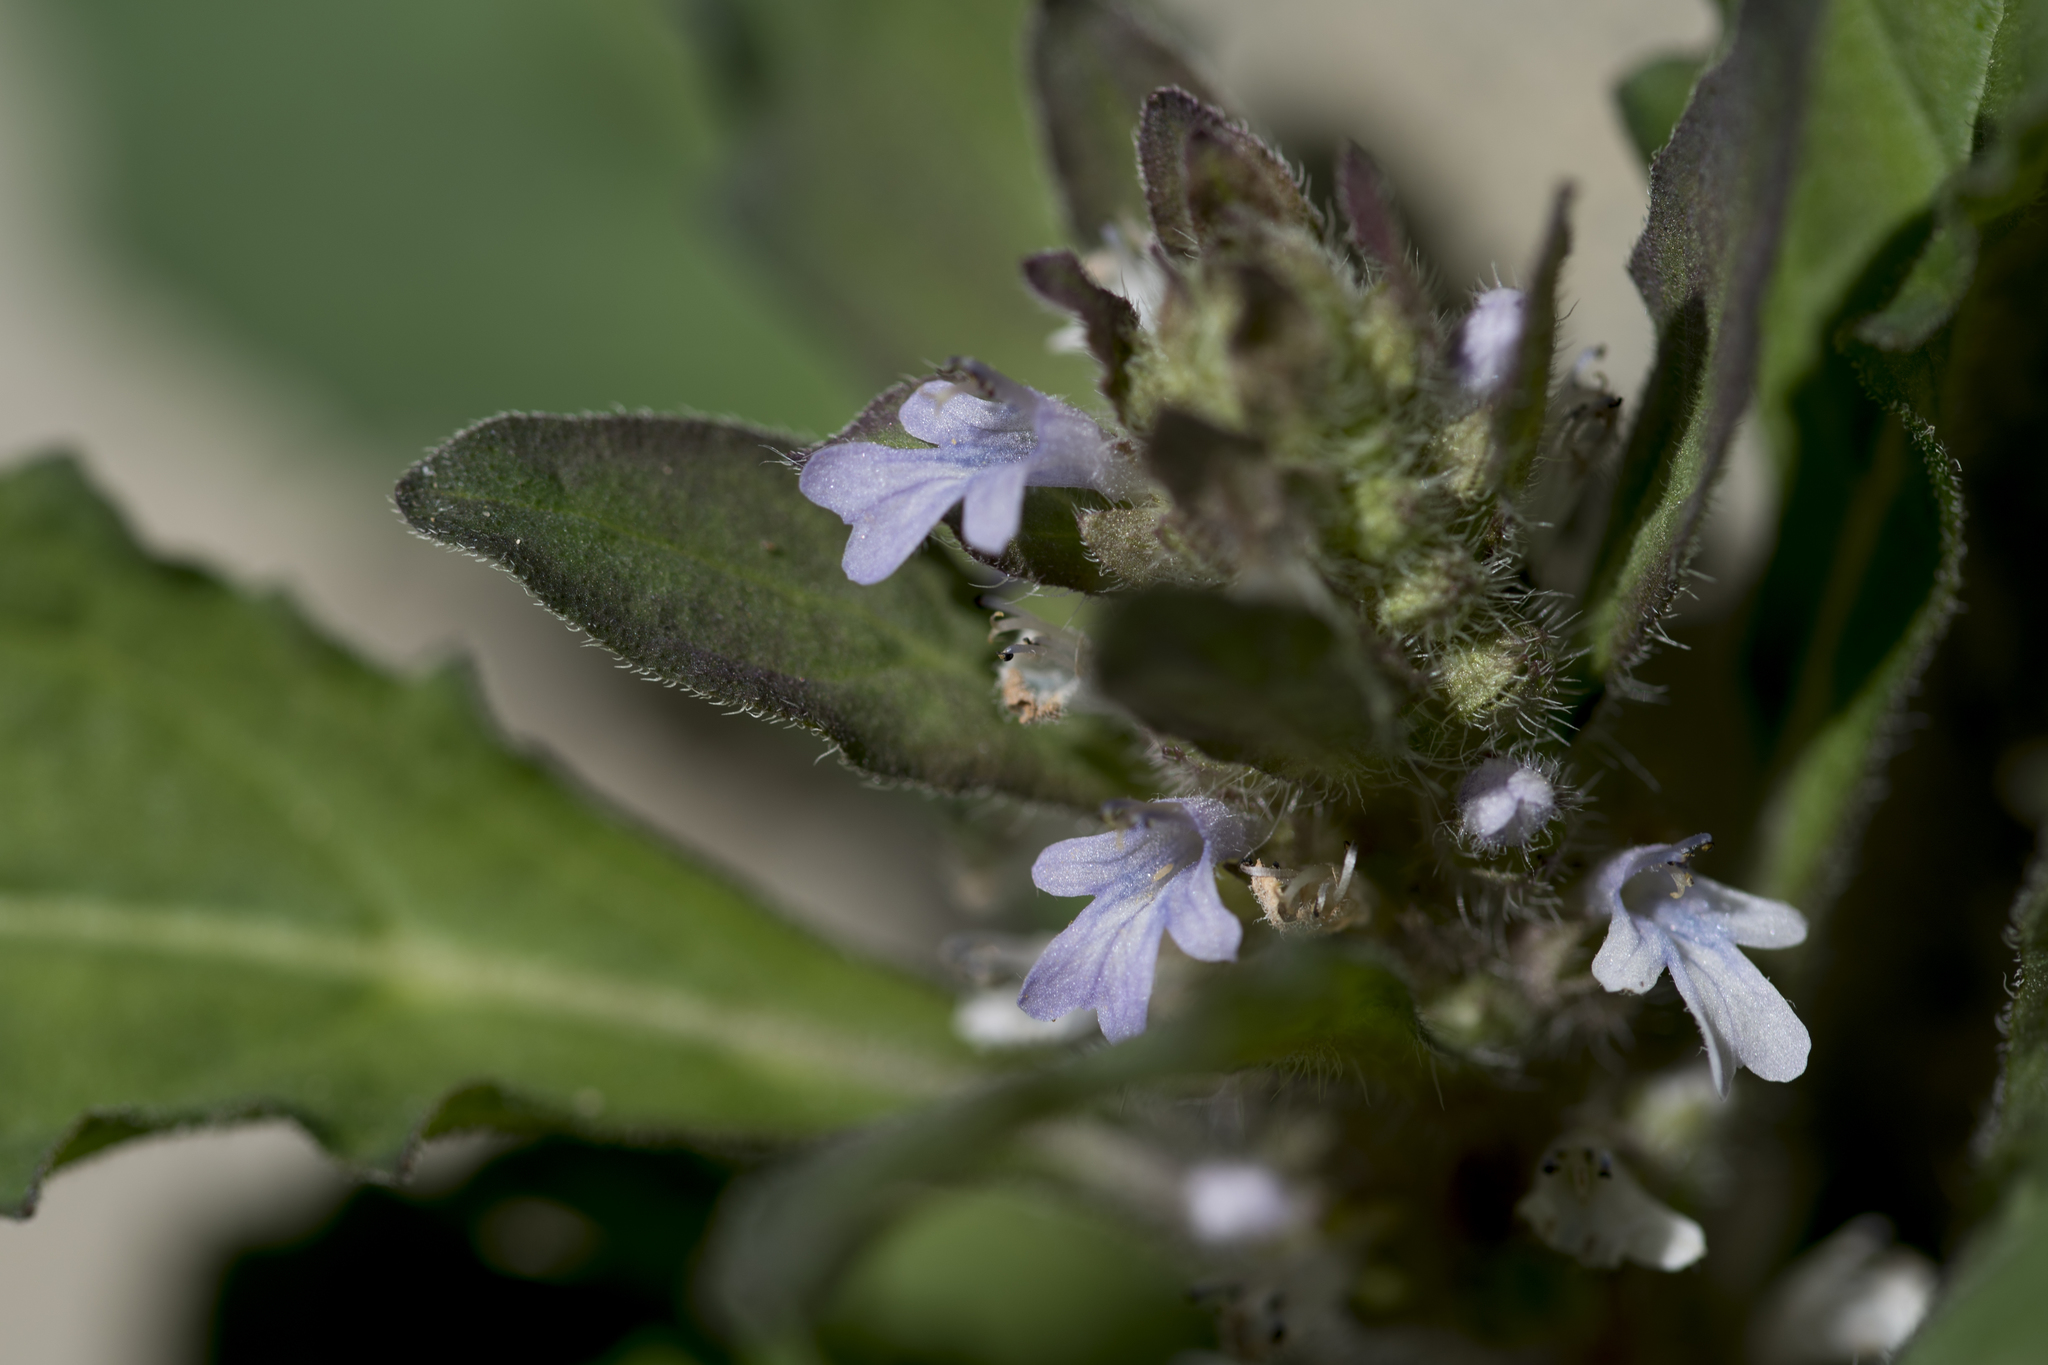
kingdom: Plantae
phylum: Tracheophyta
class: Magnoliopsida
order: Lamiales
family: Lamiaceae
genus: Ajuga
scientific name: Ajuga taiwanensis
